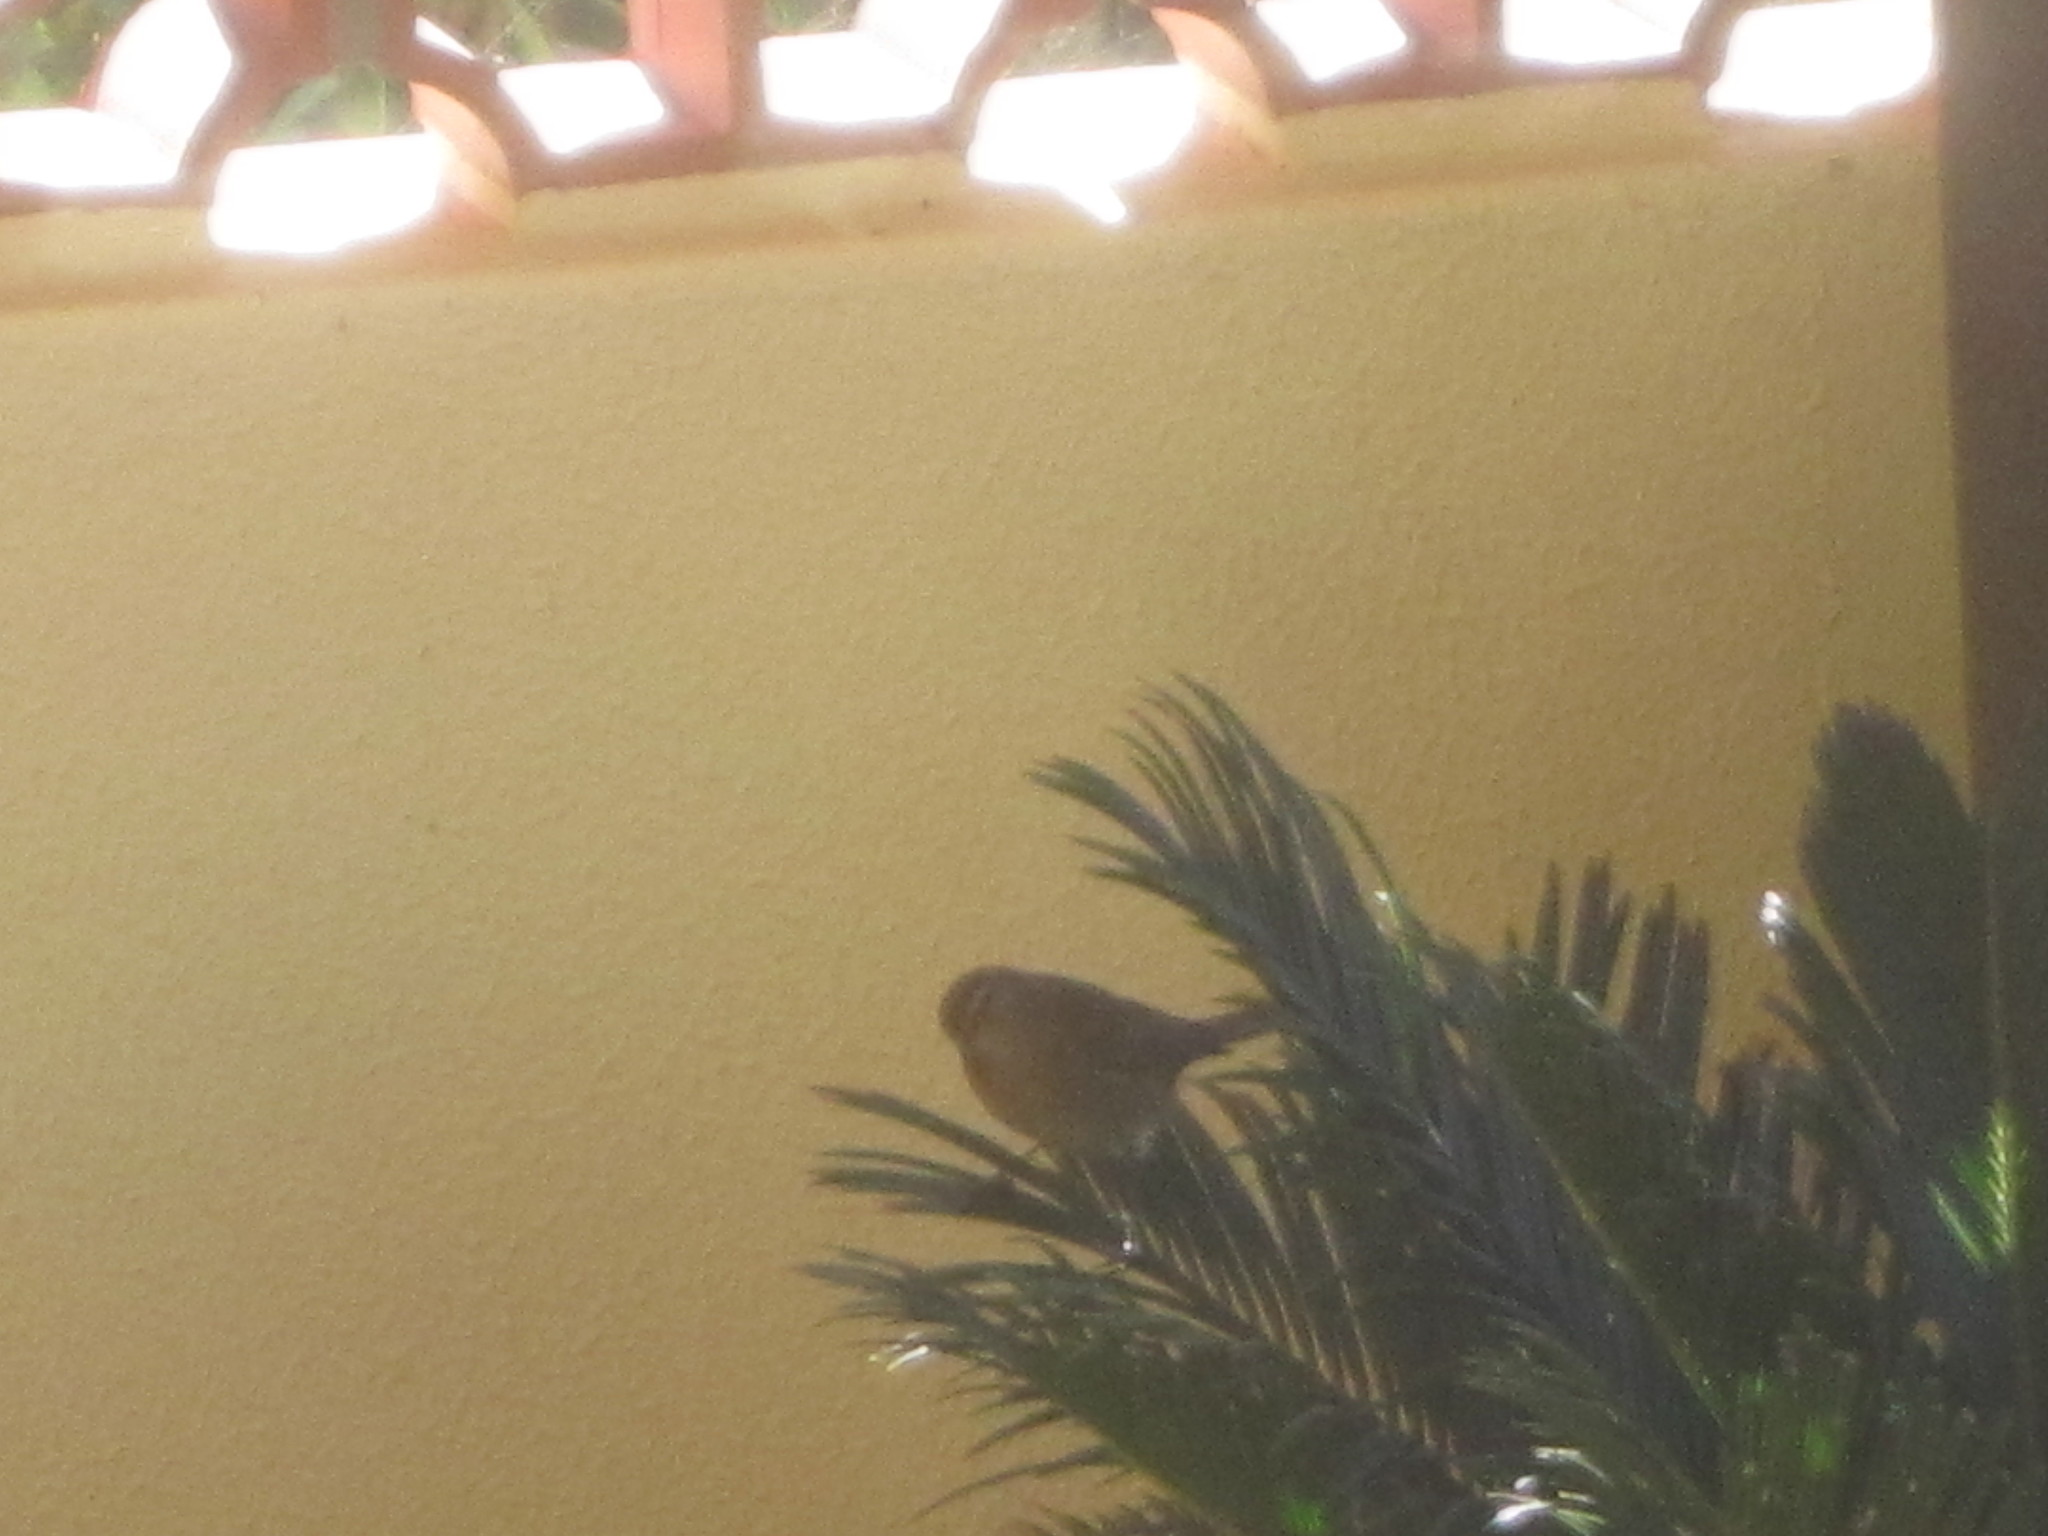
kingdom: Animalia
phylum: Chordata
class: Aves
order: Passeriformes
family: Phylloscopidae
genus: Phylloscopus
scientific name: Phylloscopus collybita
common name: Common chiffchaff
